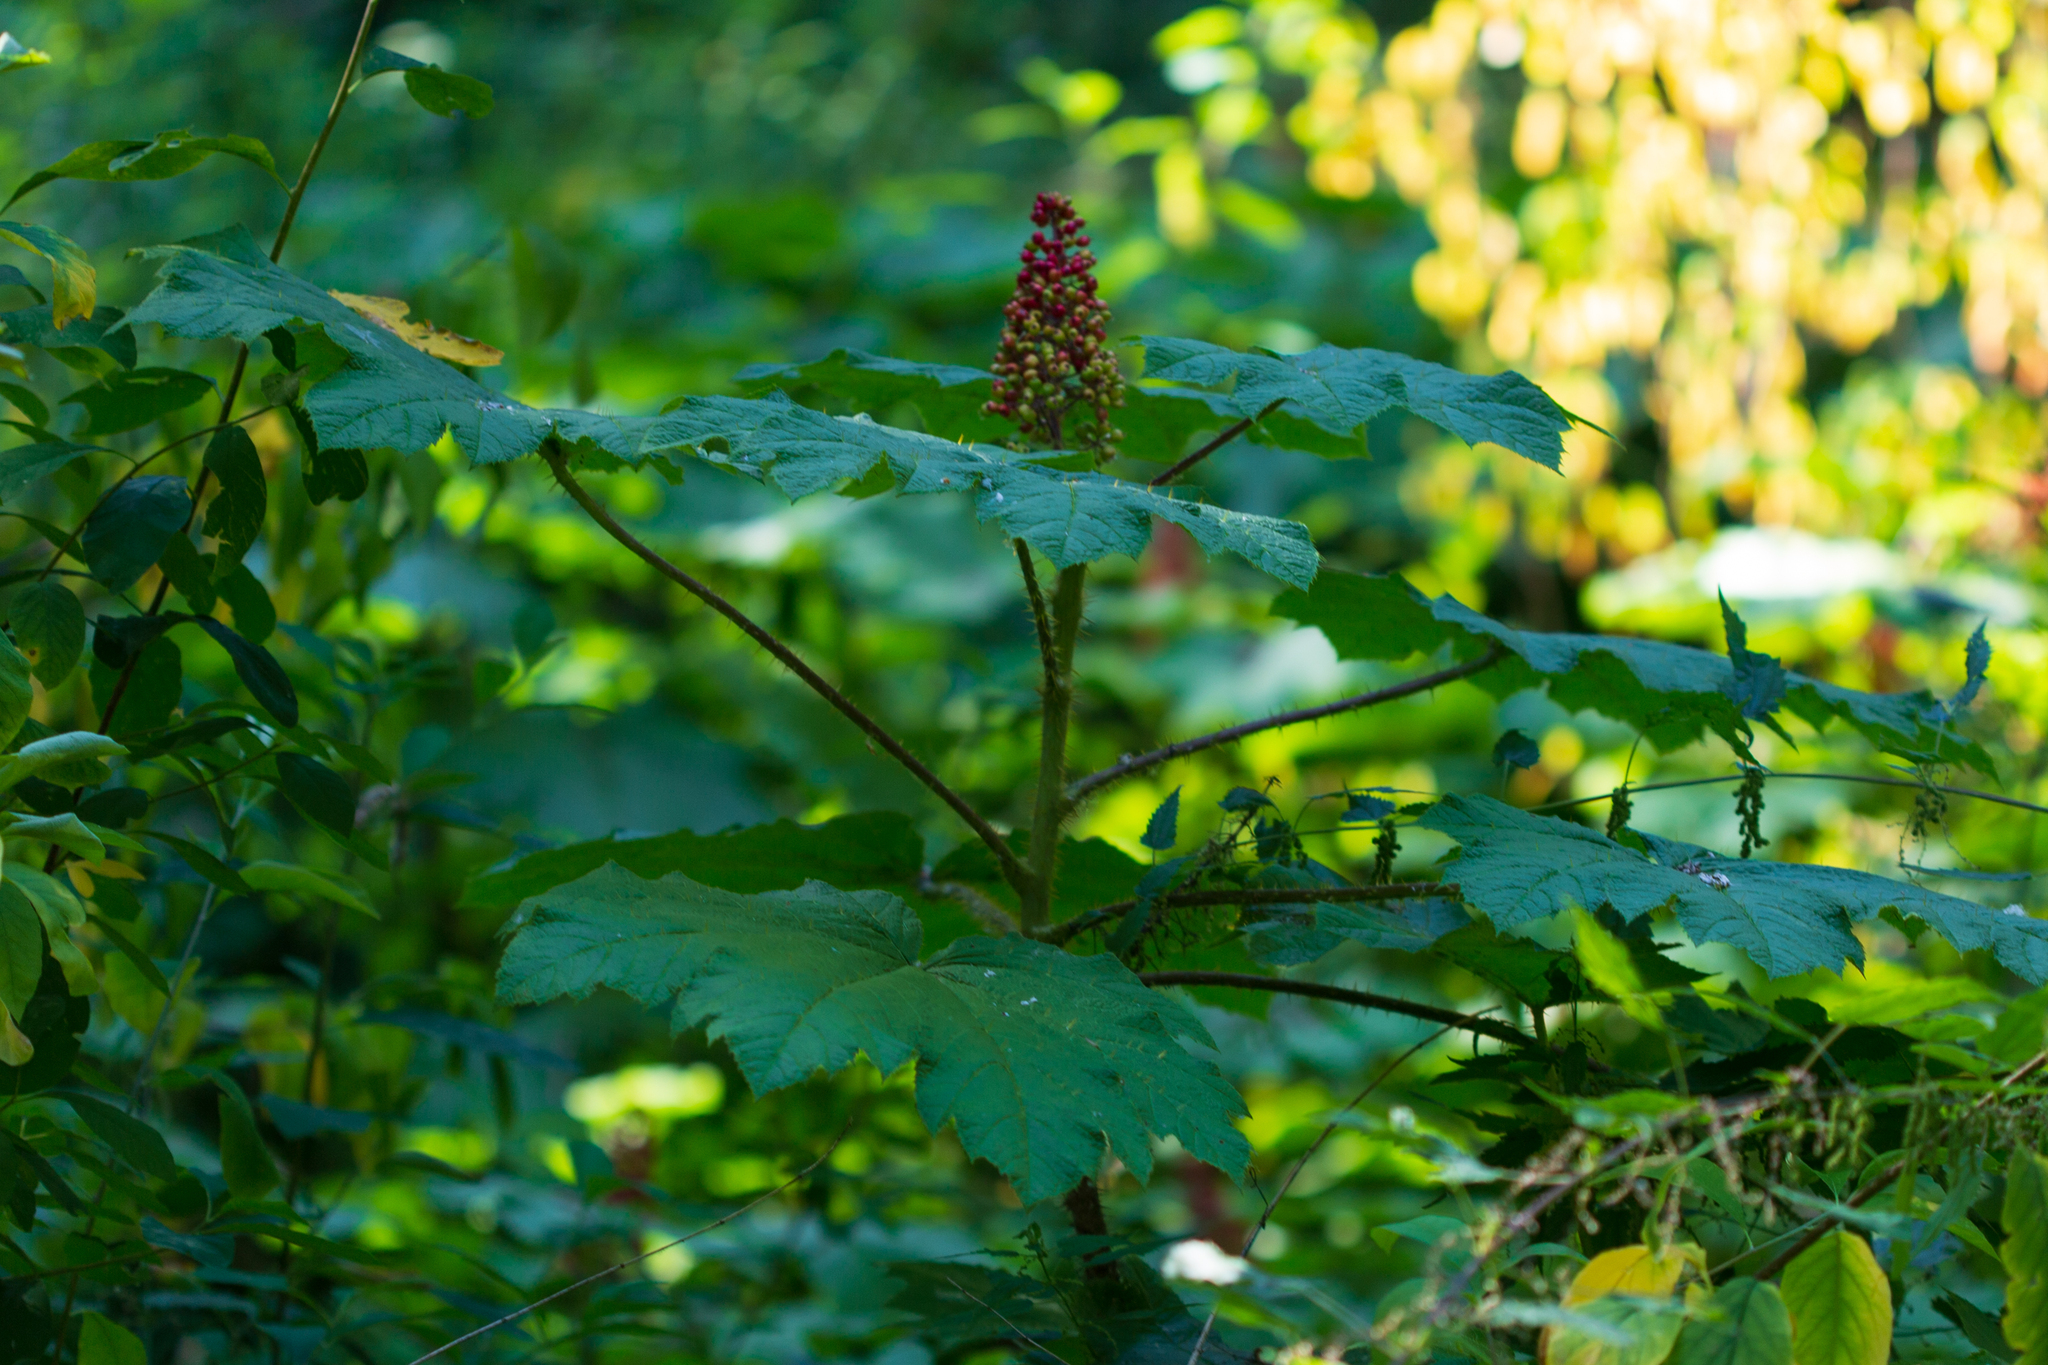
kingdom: Plantae
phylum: Tracheophyta
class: Magnoliopsida
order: Apiales
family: Araliaceae
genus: Oplopanax
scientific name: Oplopanax horridus
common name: Devil's walking-stick
